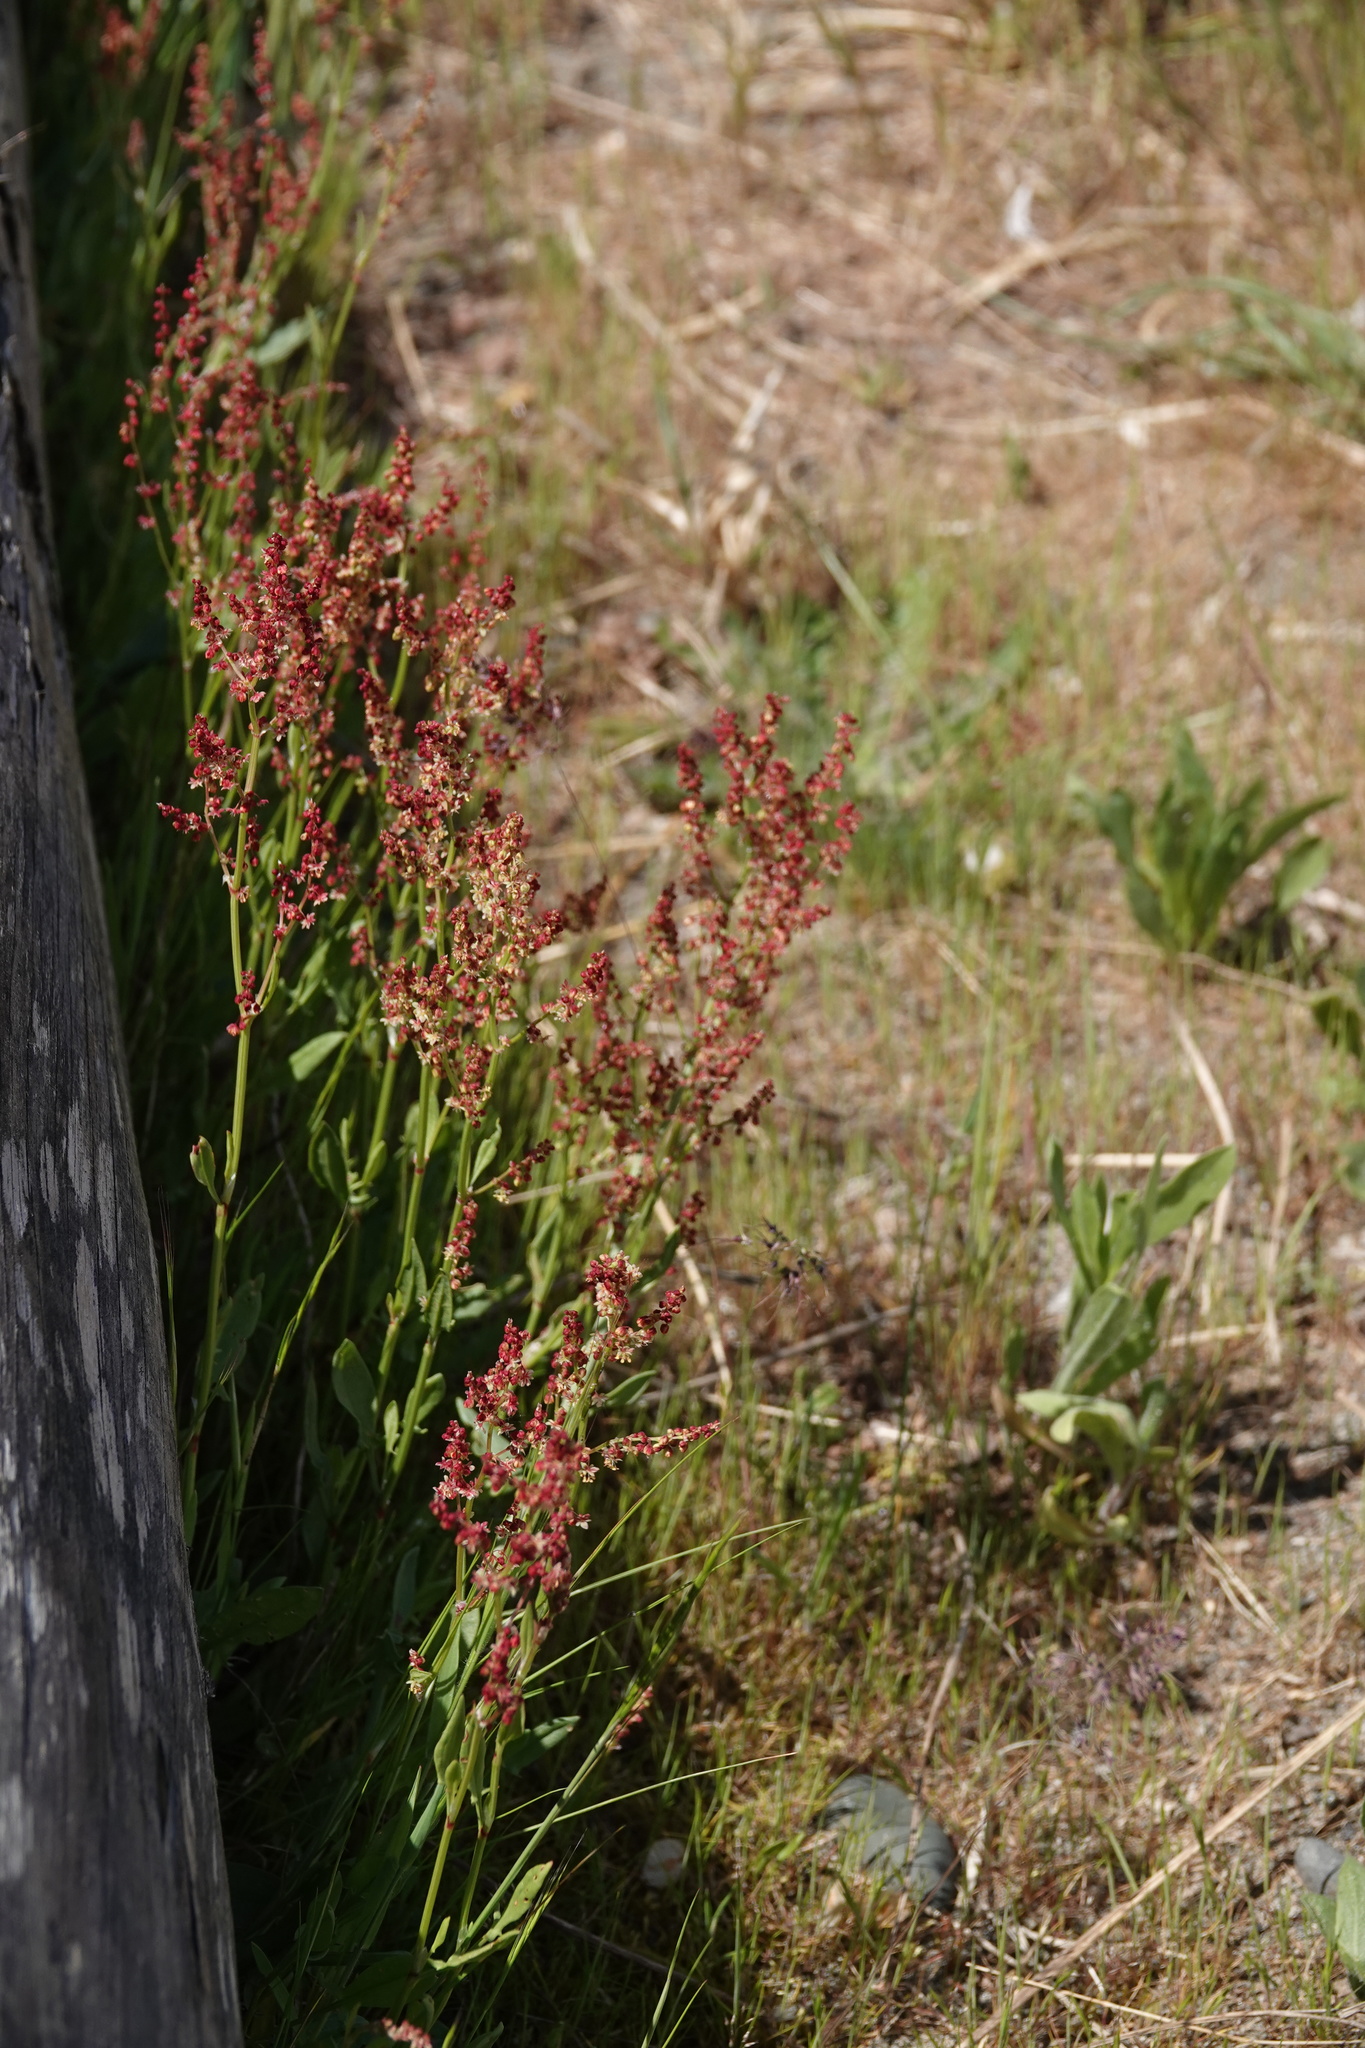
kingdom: Plantae
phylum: Tracheophyta
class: Magnoliopsida
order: Caryophyllales
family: Polygonaceae
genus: Rumex
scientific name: Rumex acetosella
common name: Common sheep sorrel
